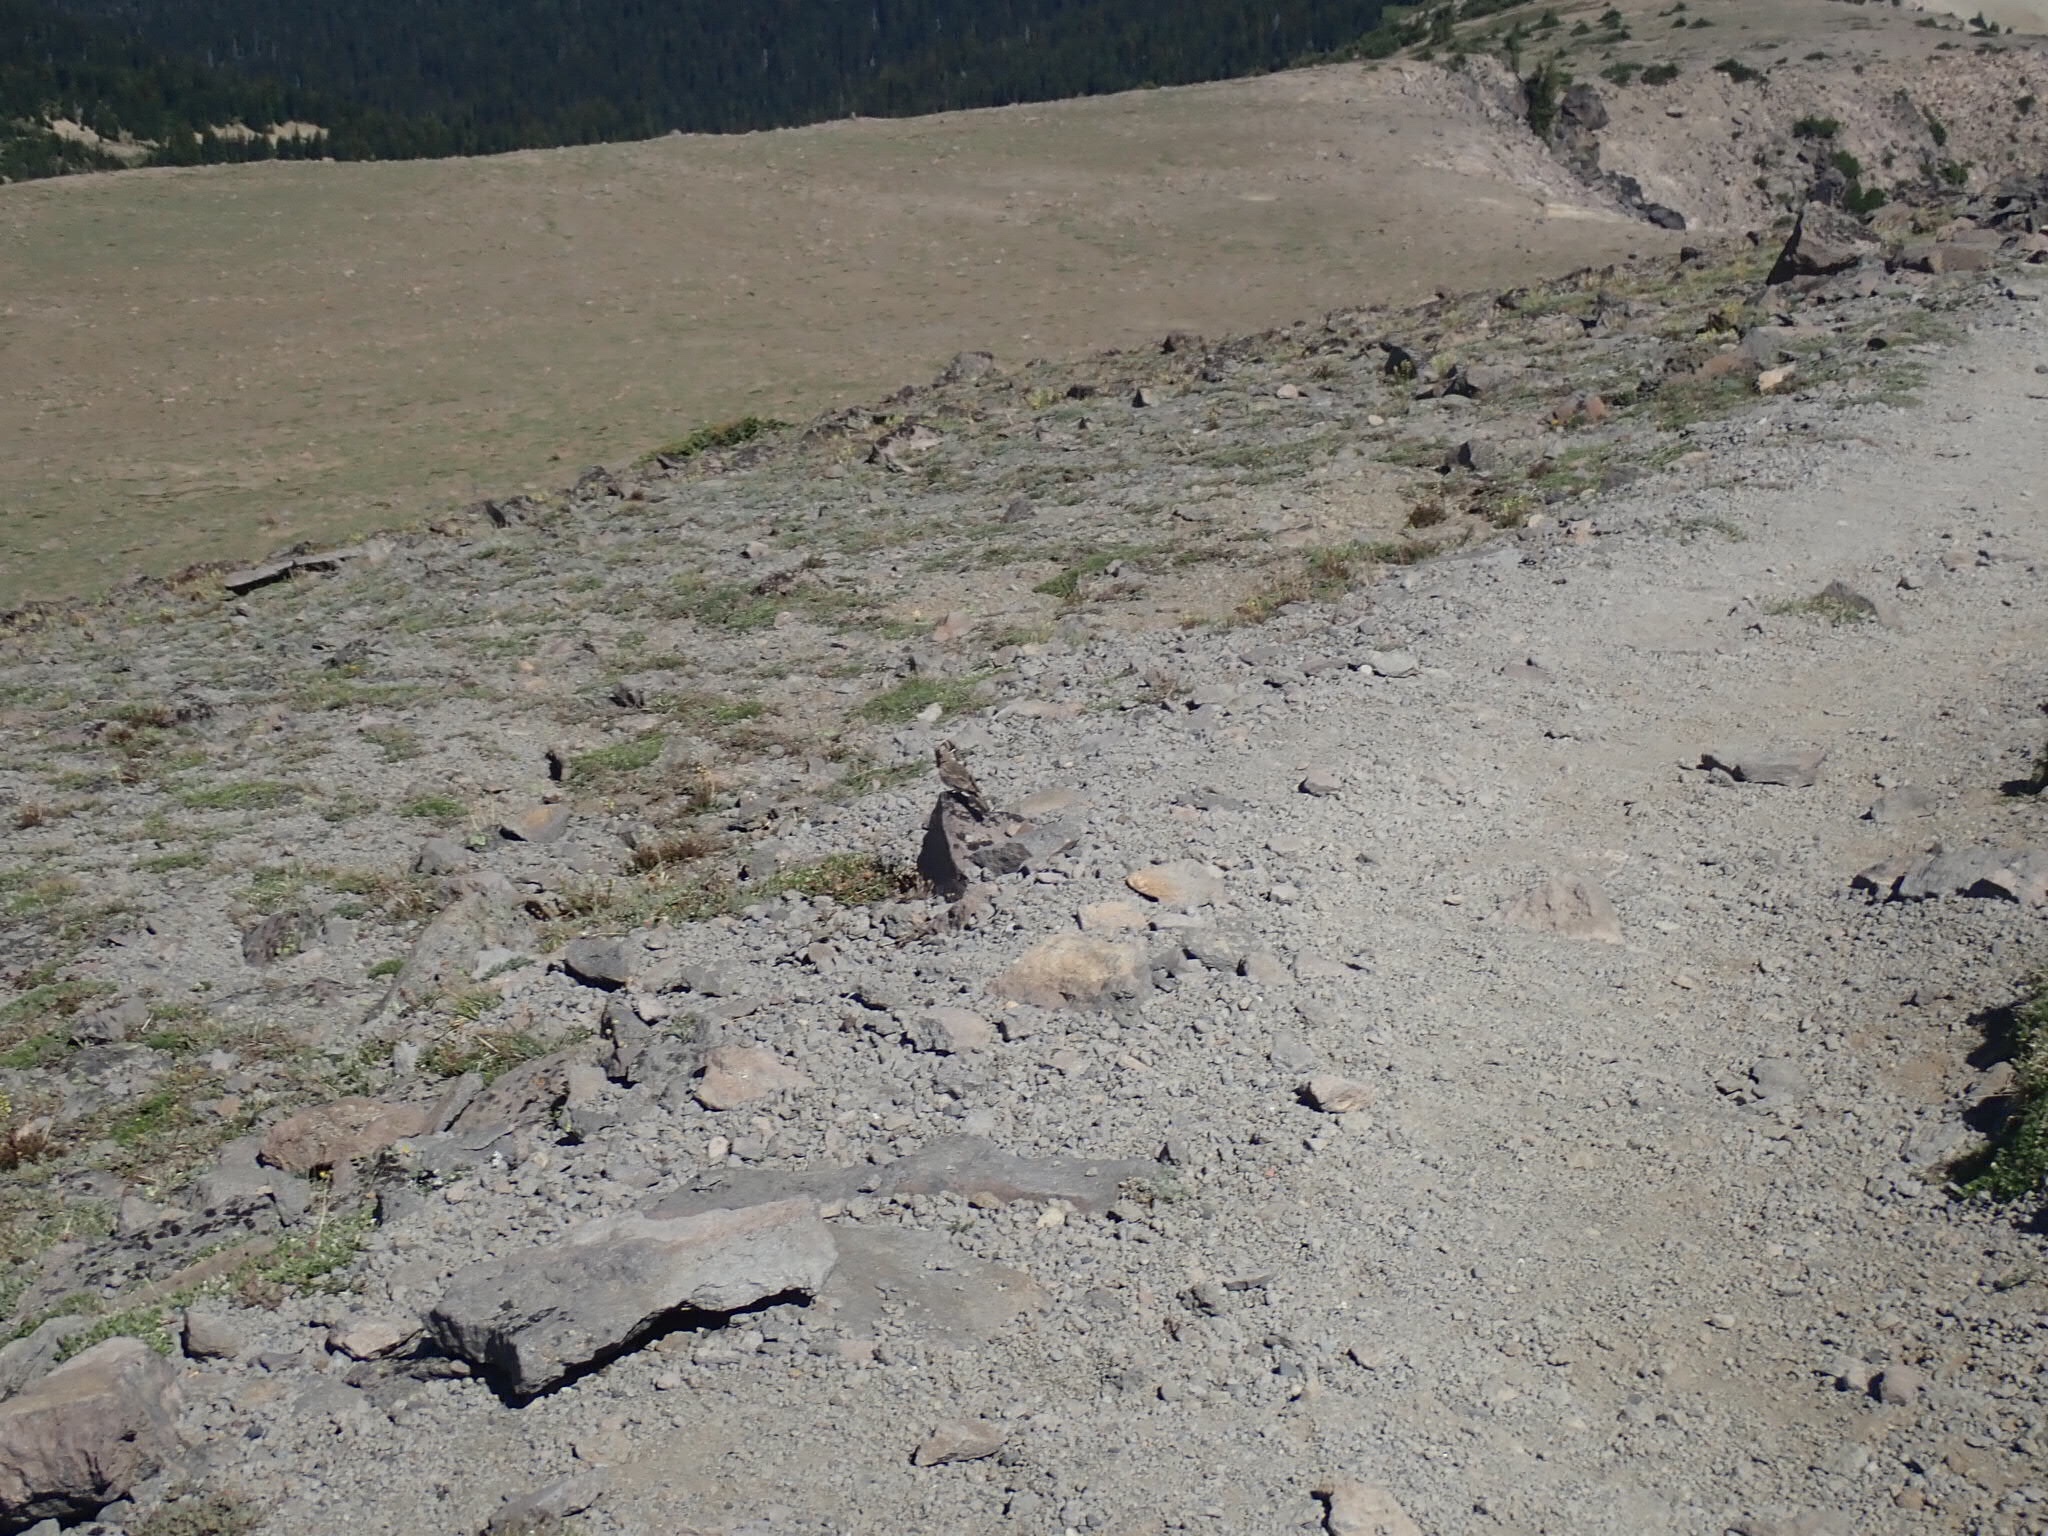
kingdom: Animalia
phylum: Chordata
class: Aves
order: Passeriformes
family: Alaudidae
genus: Eremophila
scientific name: Eremophila alpestris
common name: Horned lark
